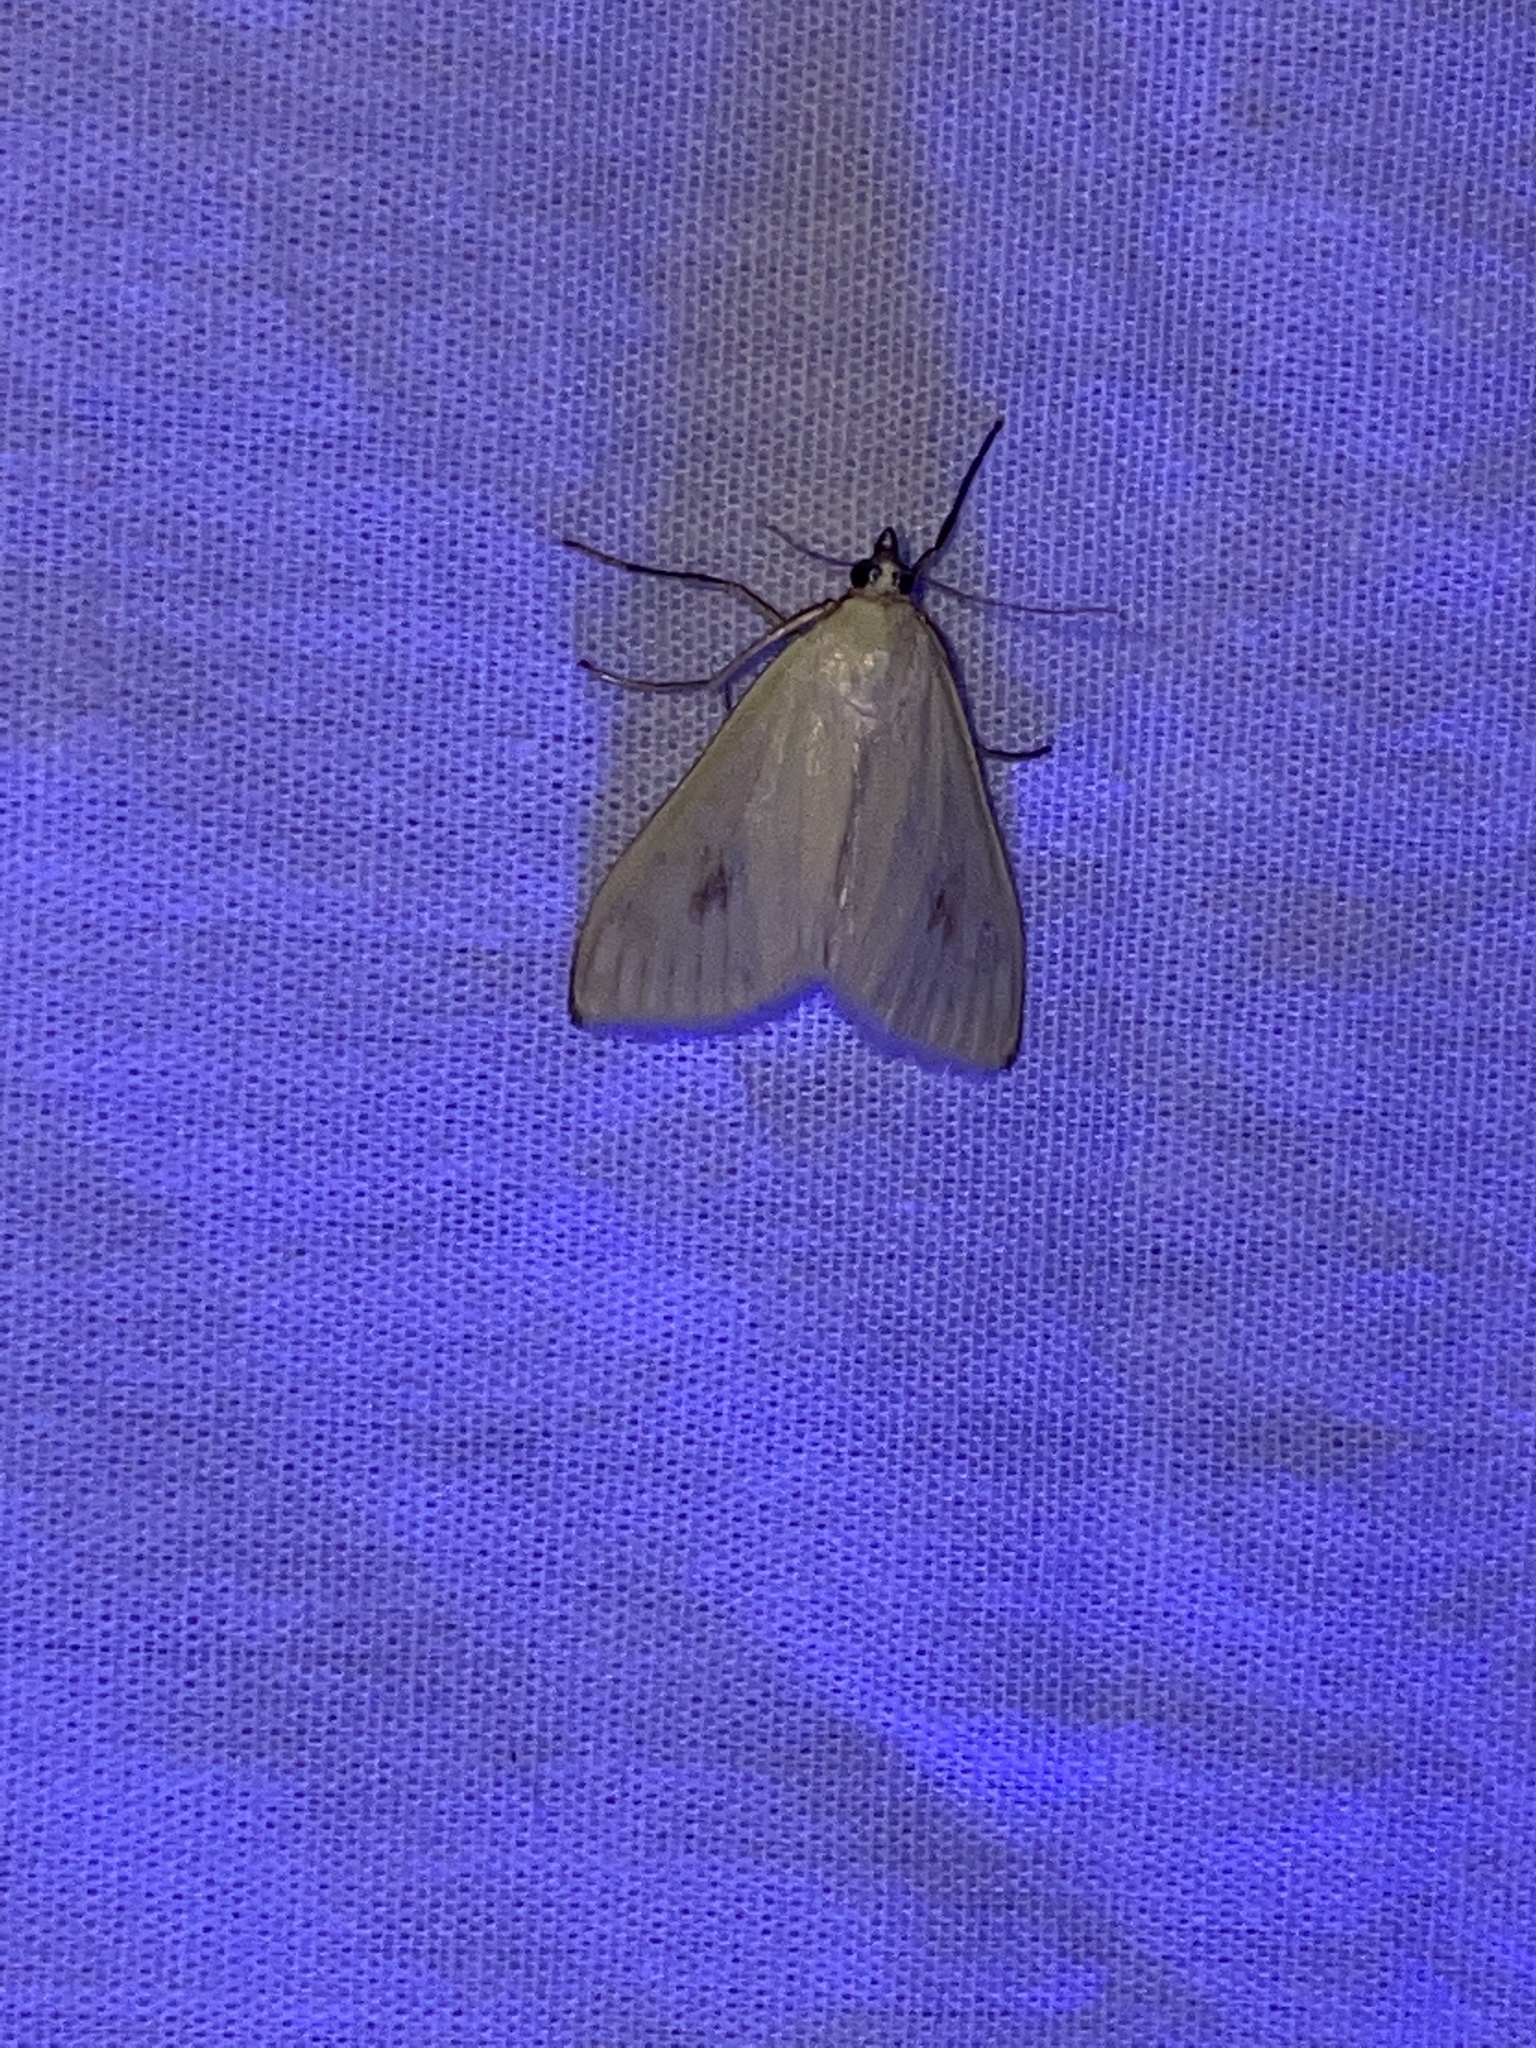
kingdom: Animalia
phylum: Arthropoda
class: Insecta
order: Lepidoptera
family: Crambidae
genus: Sitochroa
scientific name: Sitochroa palealis
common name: Greenish-yellow sitochroa moth
